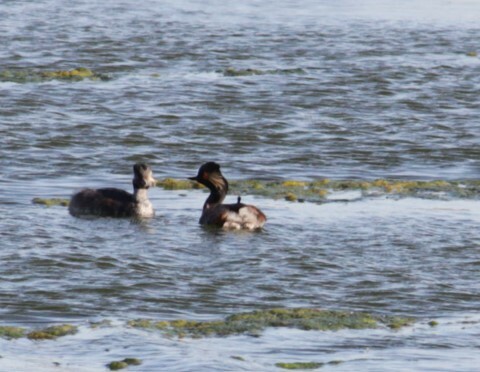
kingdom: Animalia
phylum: Chordata
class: Aves
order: Podicipediformes
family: Podicipedidae
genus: Podiceps
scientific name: Podiceps nigricollis
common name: Black-necked grebe
